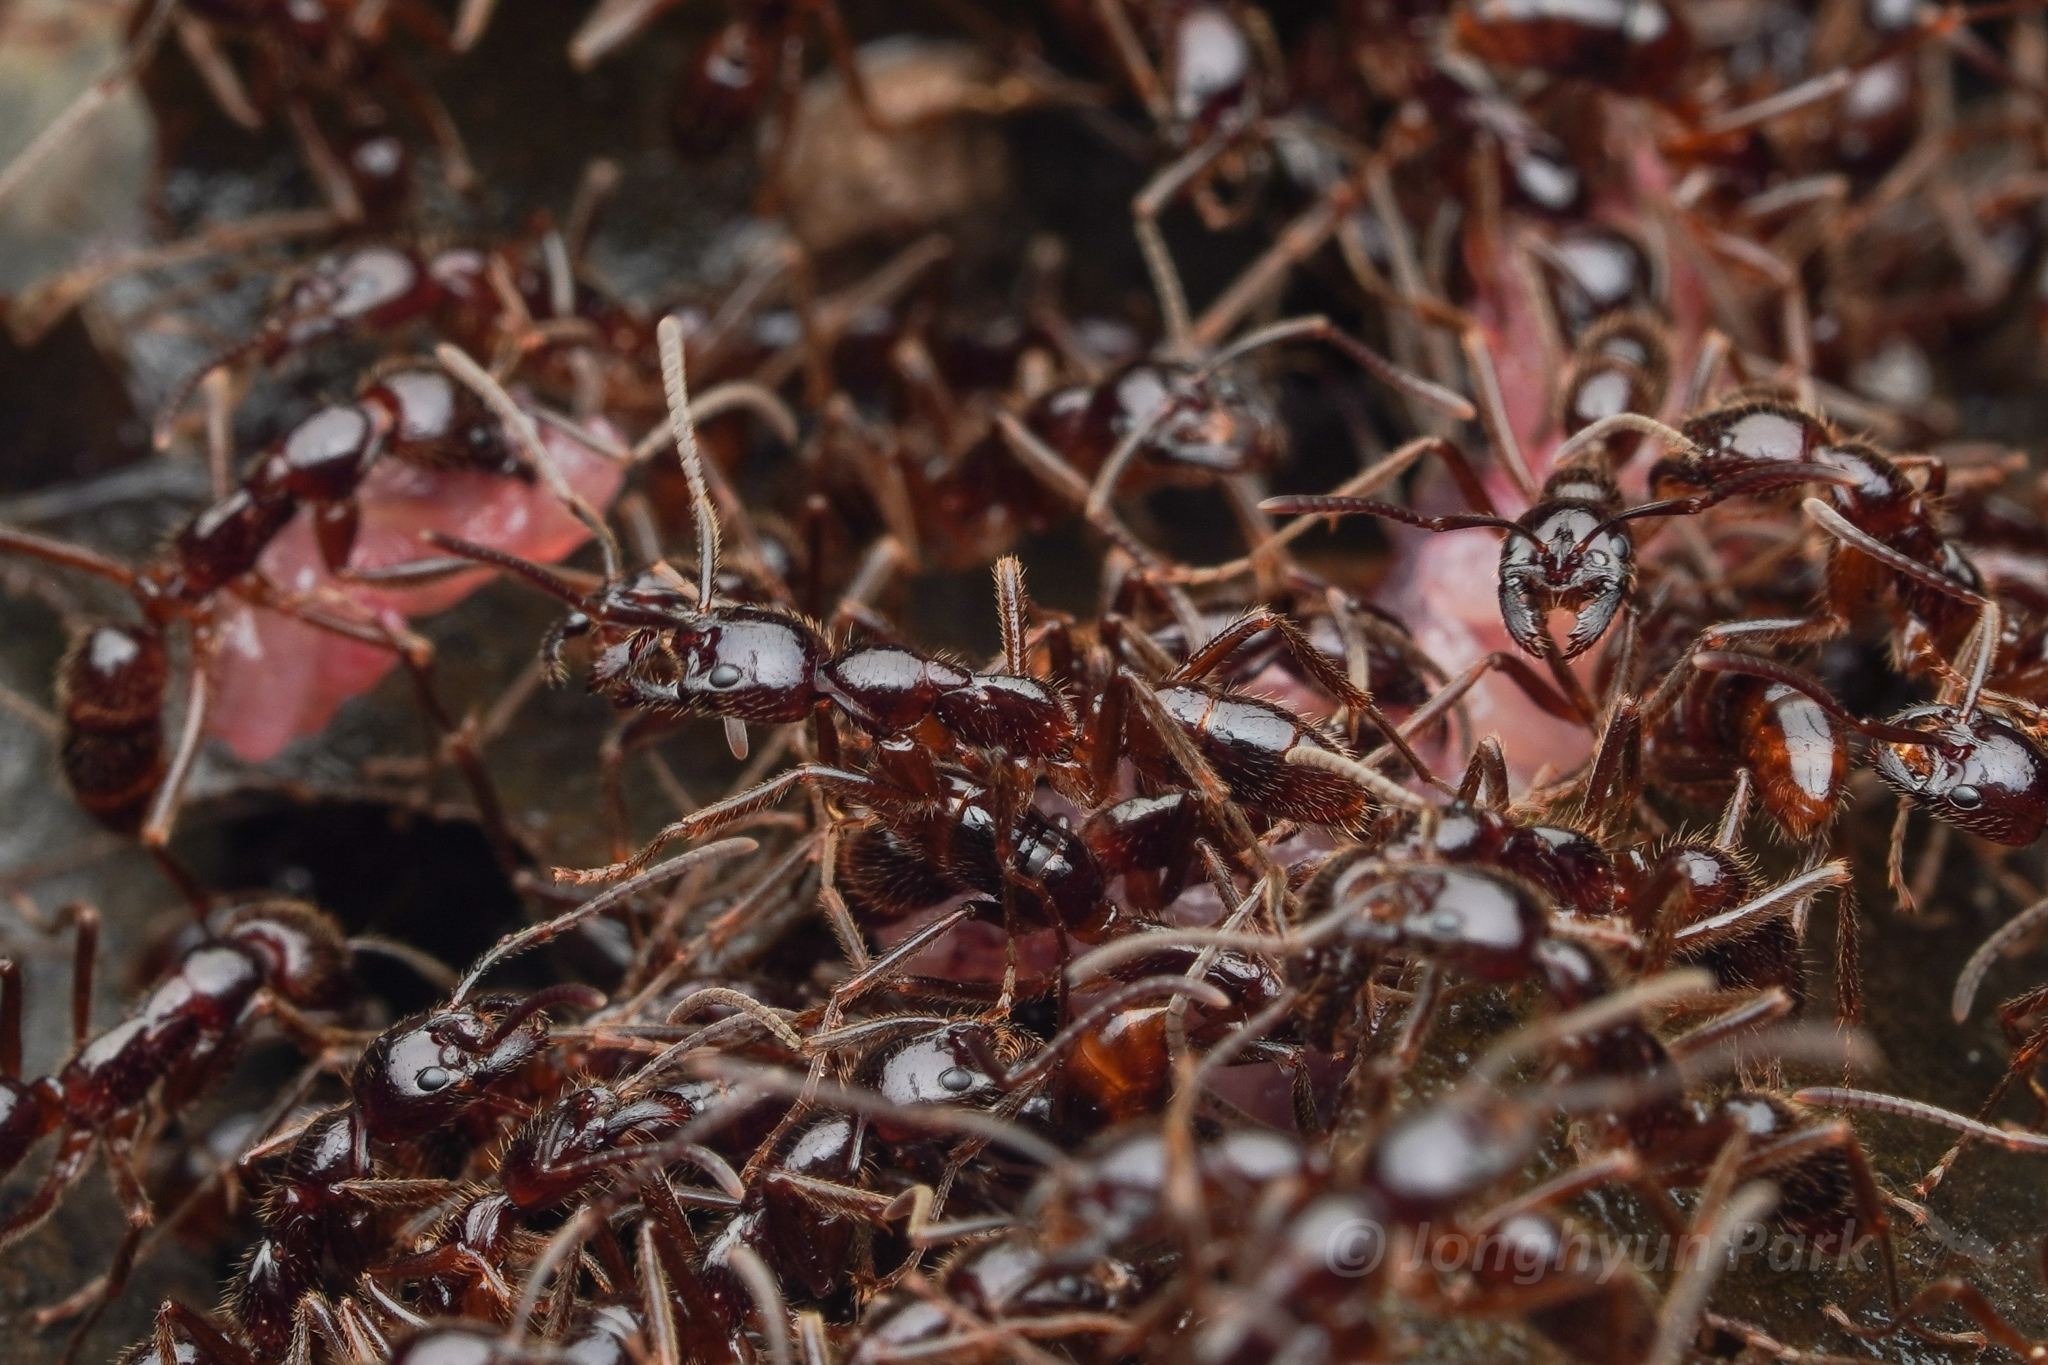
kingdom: Animalia
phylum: Arthropoda
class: Insecta
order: Hymenoptera
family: Formicidae
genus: Leptogenys
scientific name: Leptogenys processionalis
